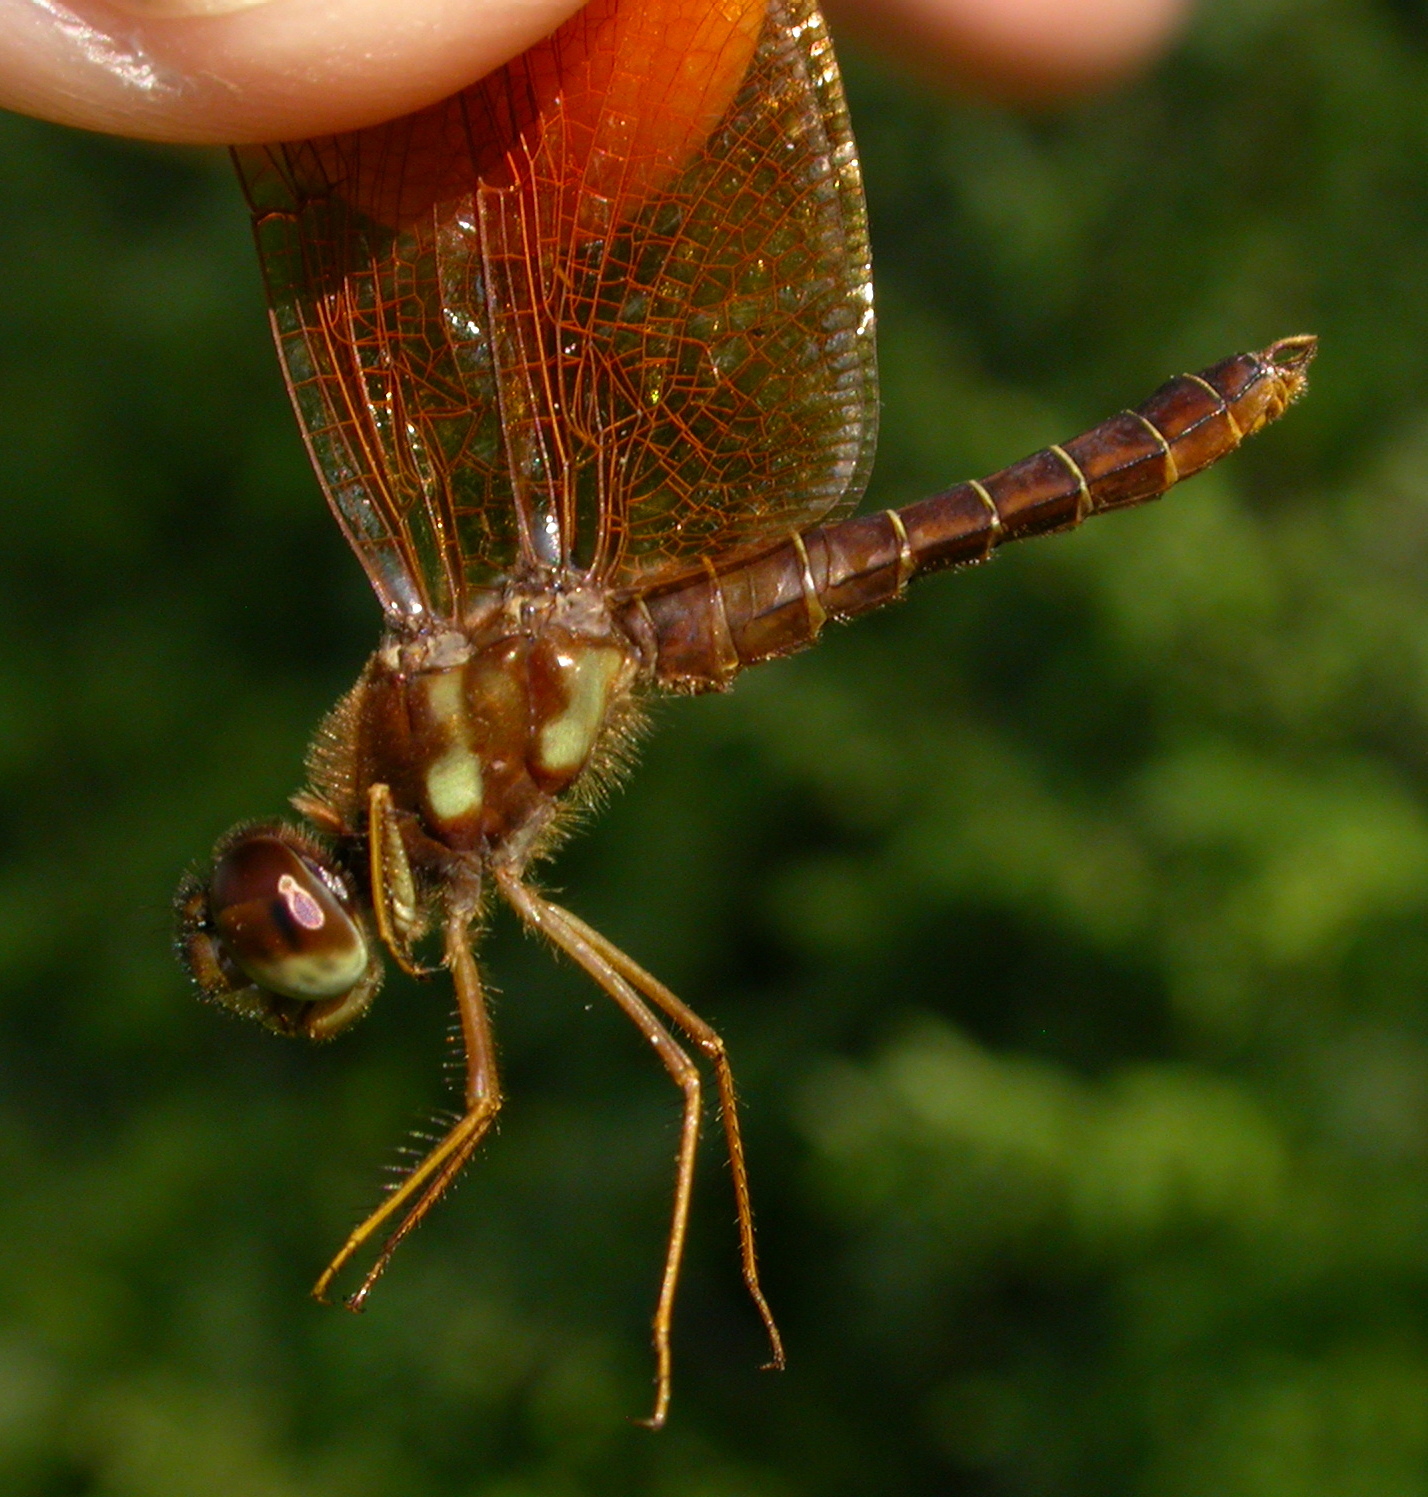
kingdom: Animalia
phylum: Arthropoda
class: Insecta
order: Odonata
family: Libellulidae
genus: Perithemis
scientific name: Perithemis tenera
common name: Eastern amberwing
